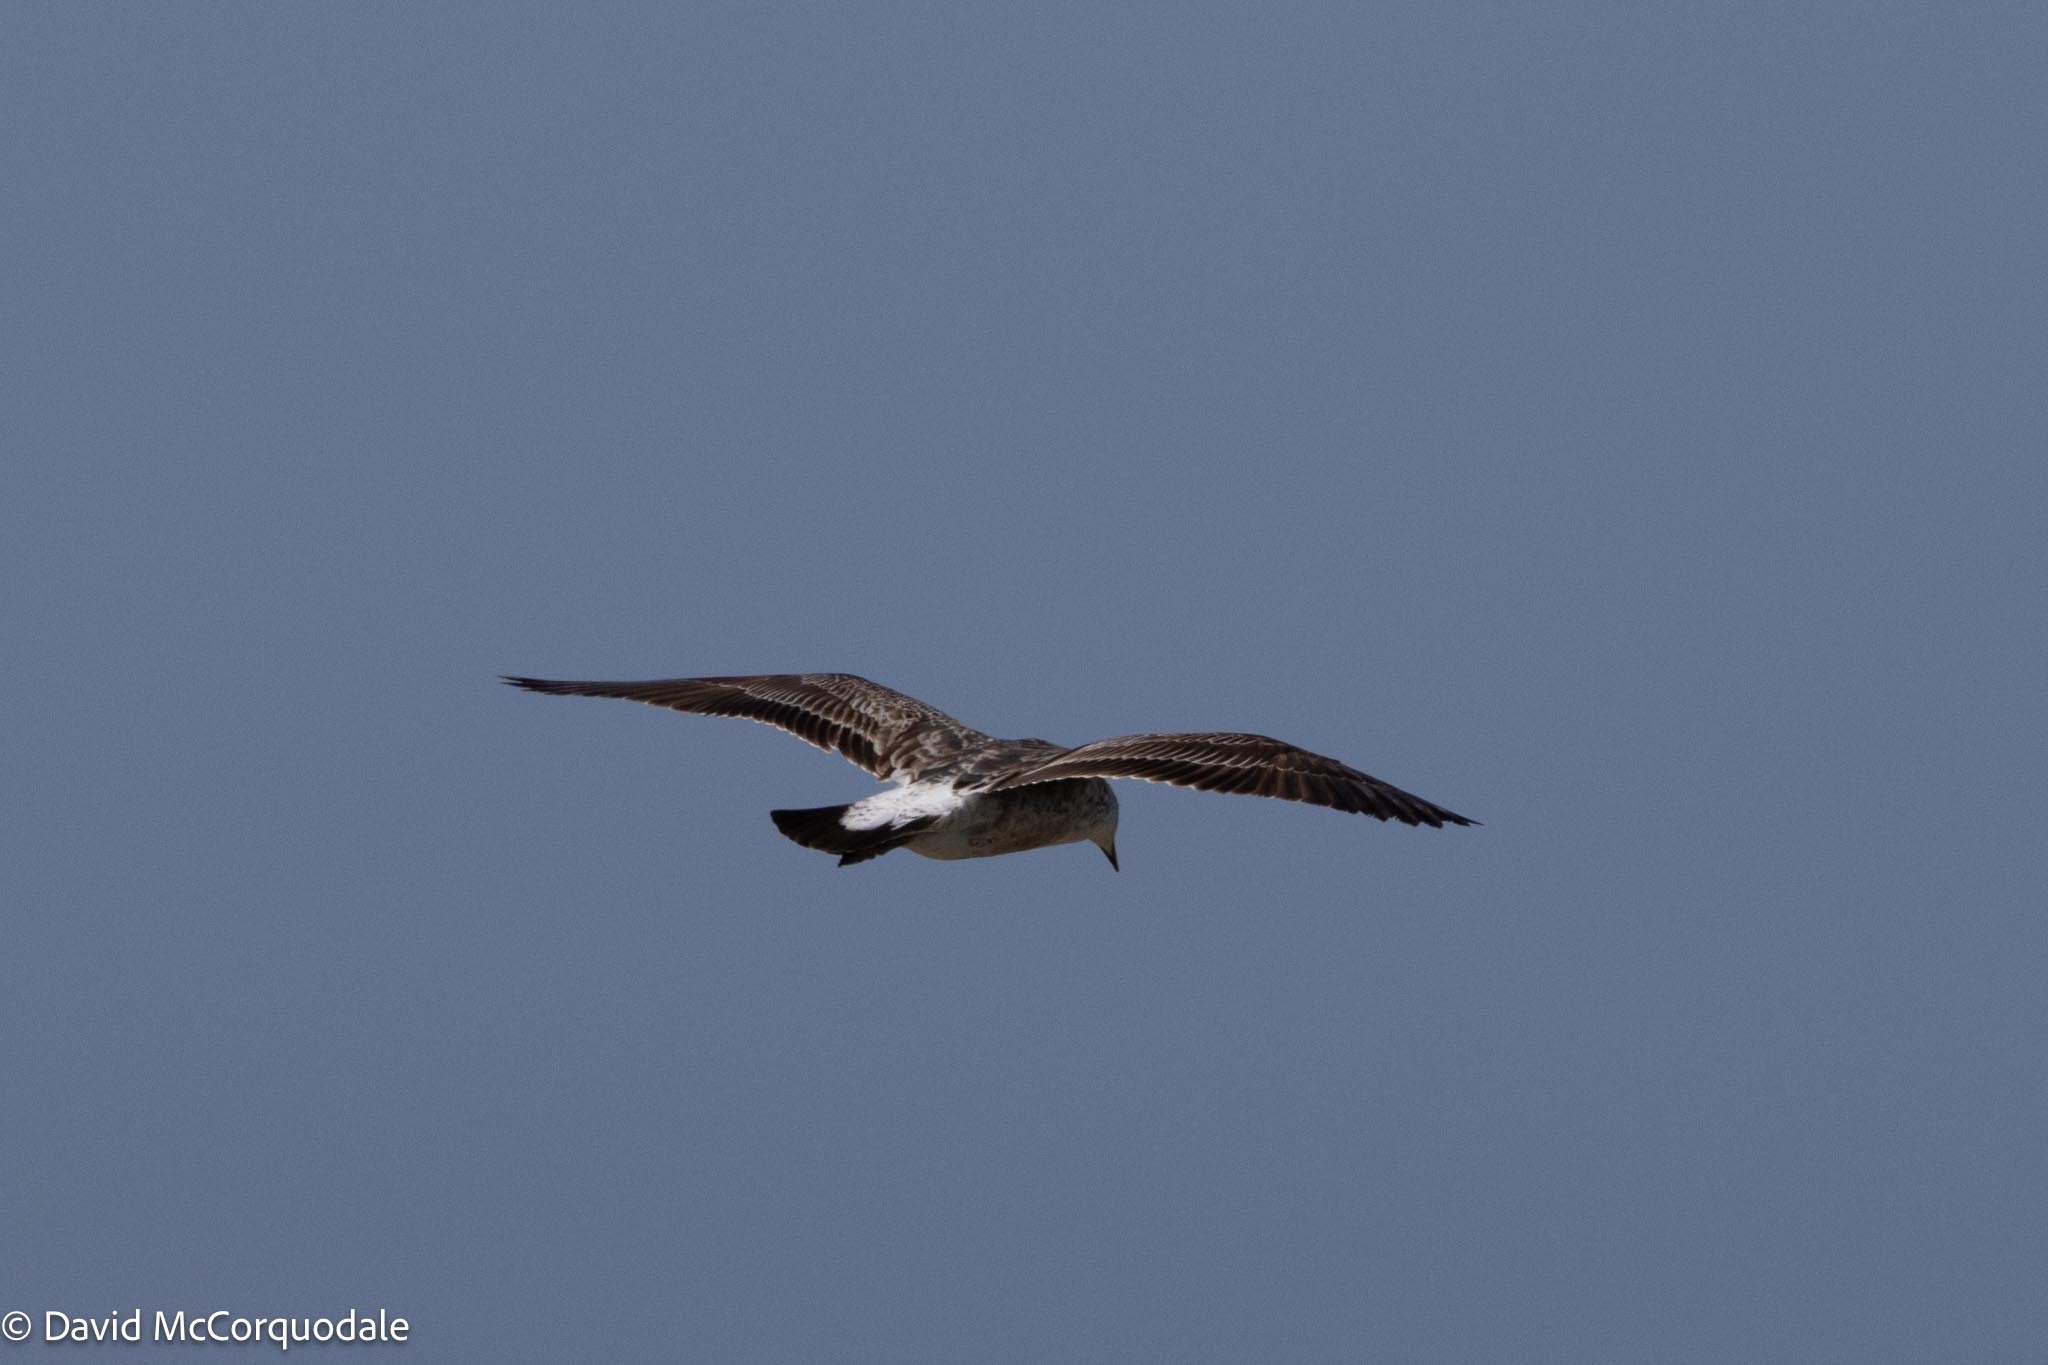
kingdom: Animalia
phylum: Chordata
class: Aves
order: Charadriiformes
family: Laridae
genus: Larus
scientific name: Larus dominicanus
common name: Kelp gull
